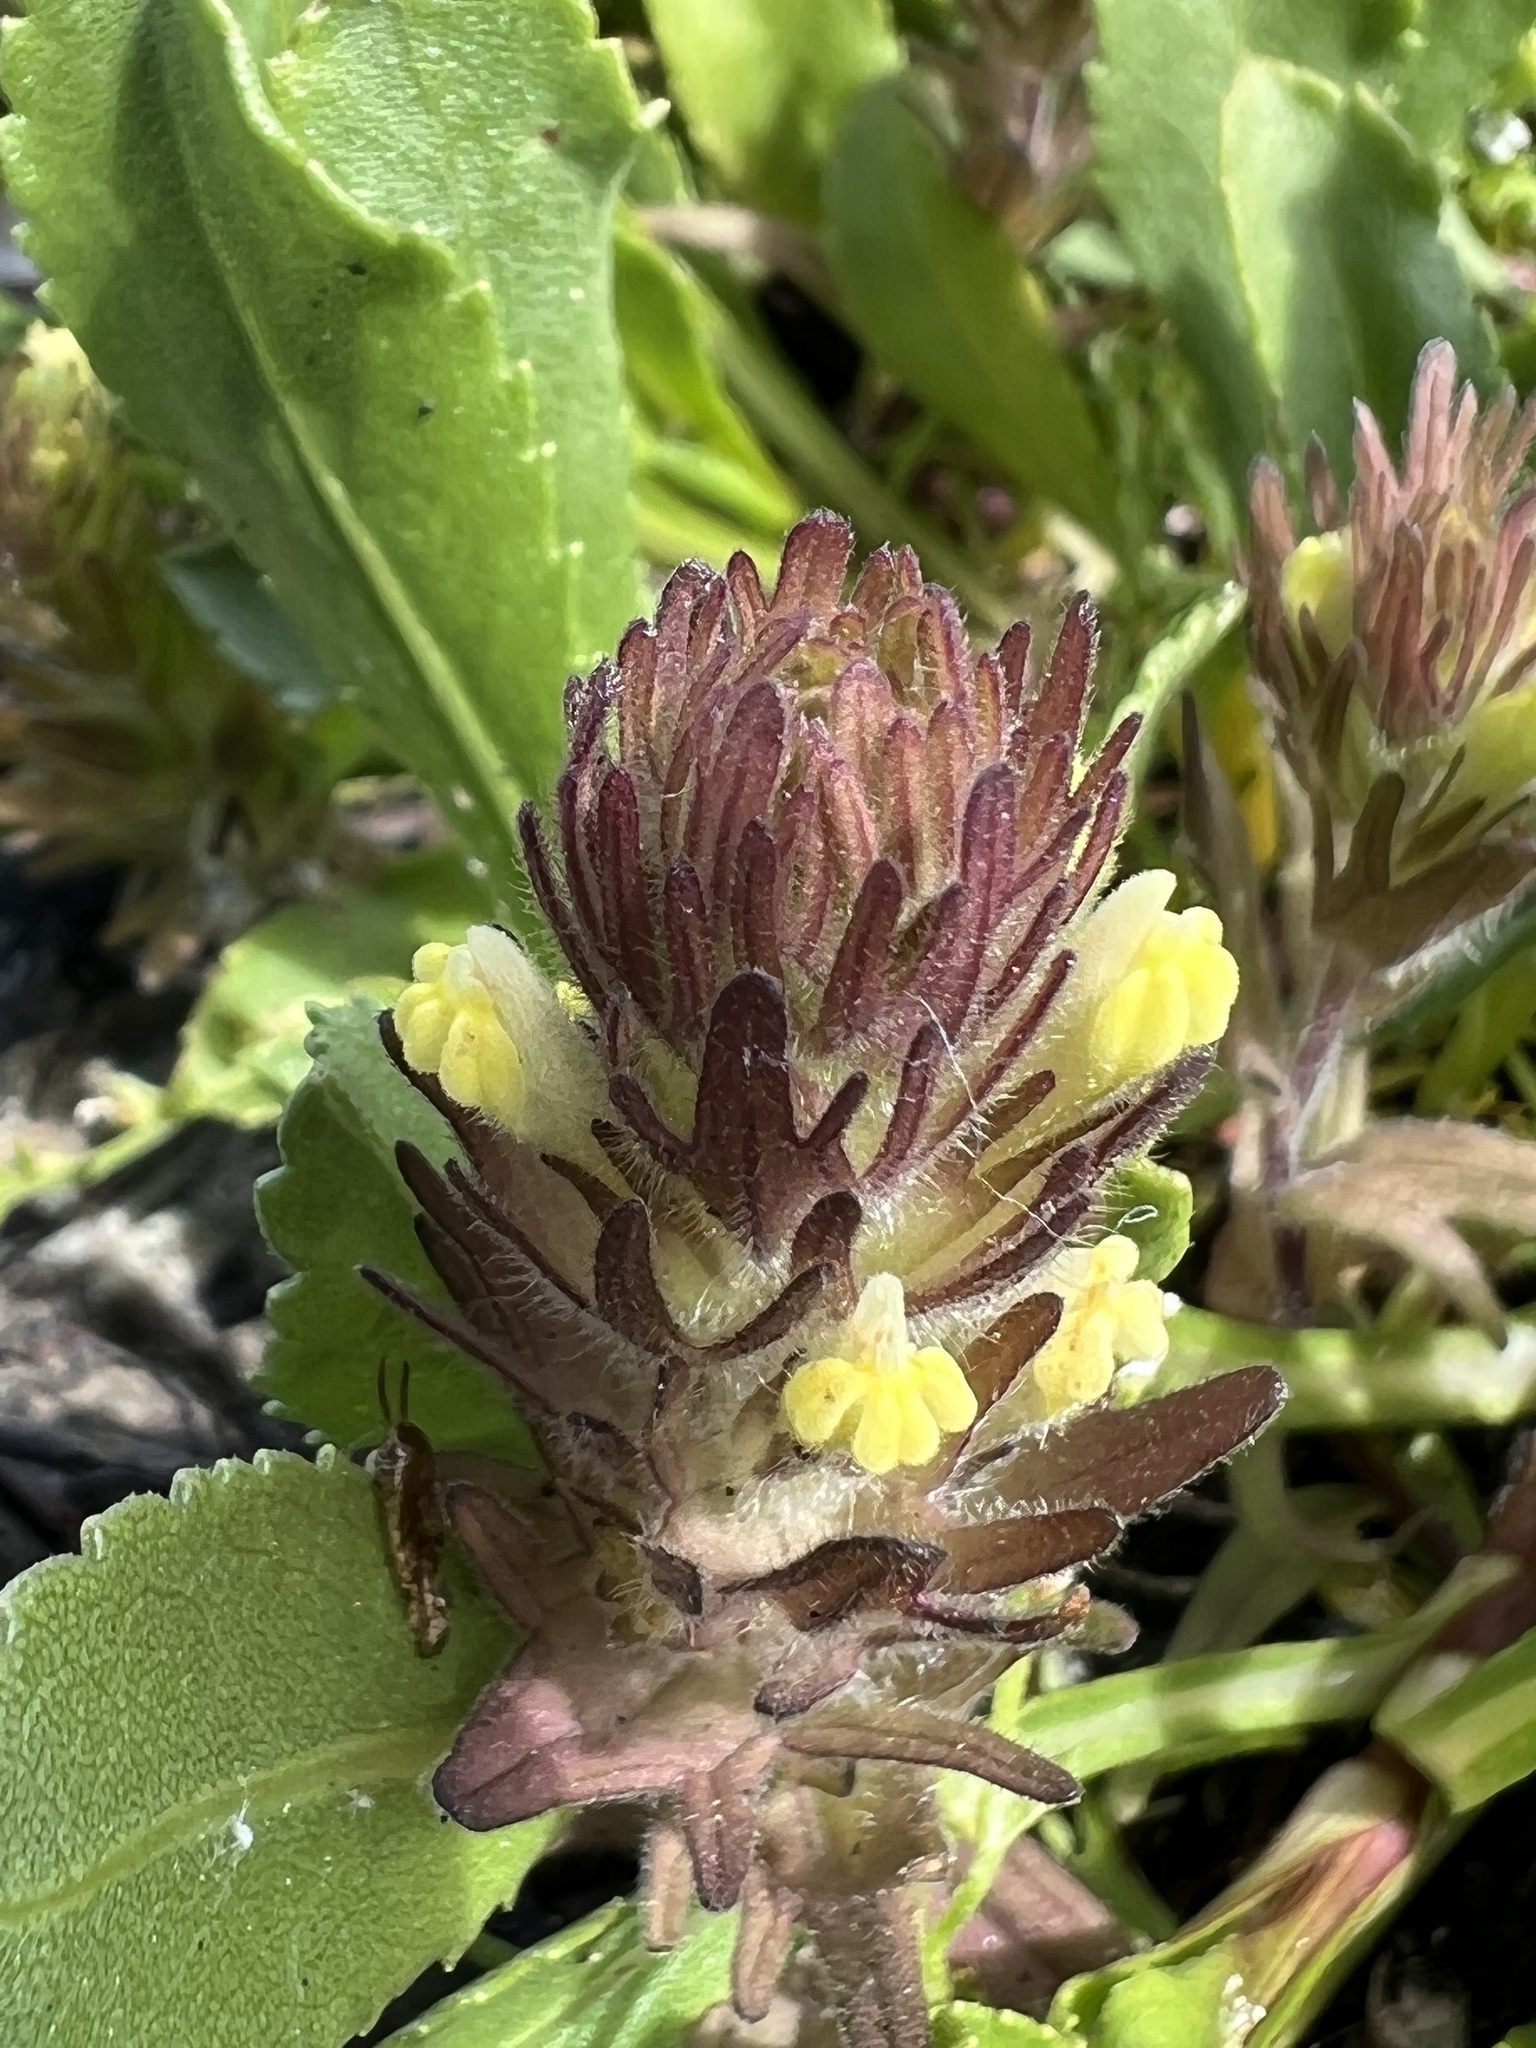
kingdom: Plantae
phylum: Tracheophyta
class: Magnoliopsida
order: Lamiales
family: Orobanchaceae
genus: Castilleja
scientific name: Castilleja victoriae
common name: Victoria paintbrush
